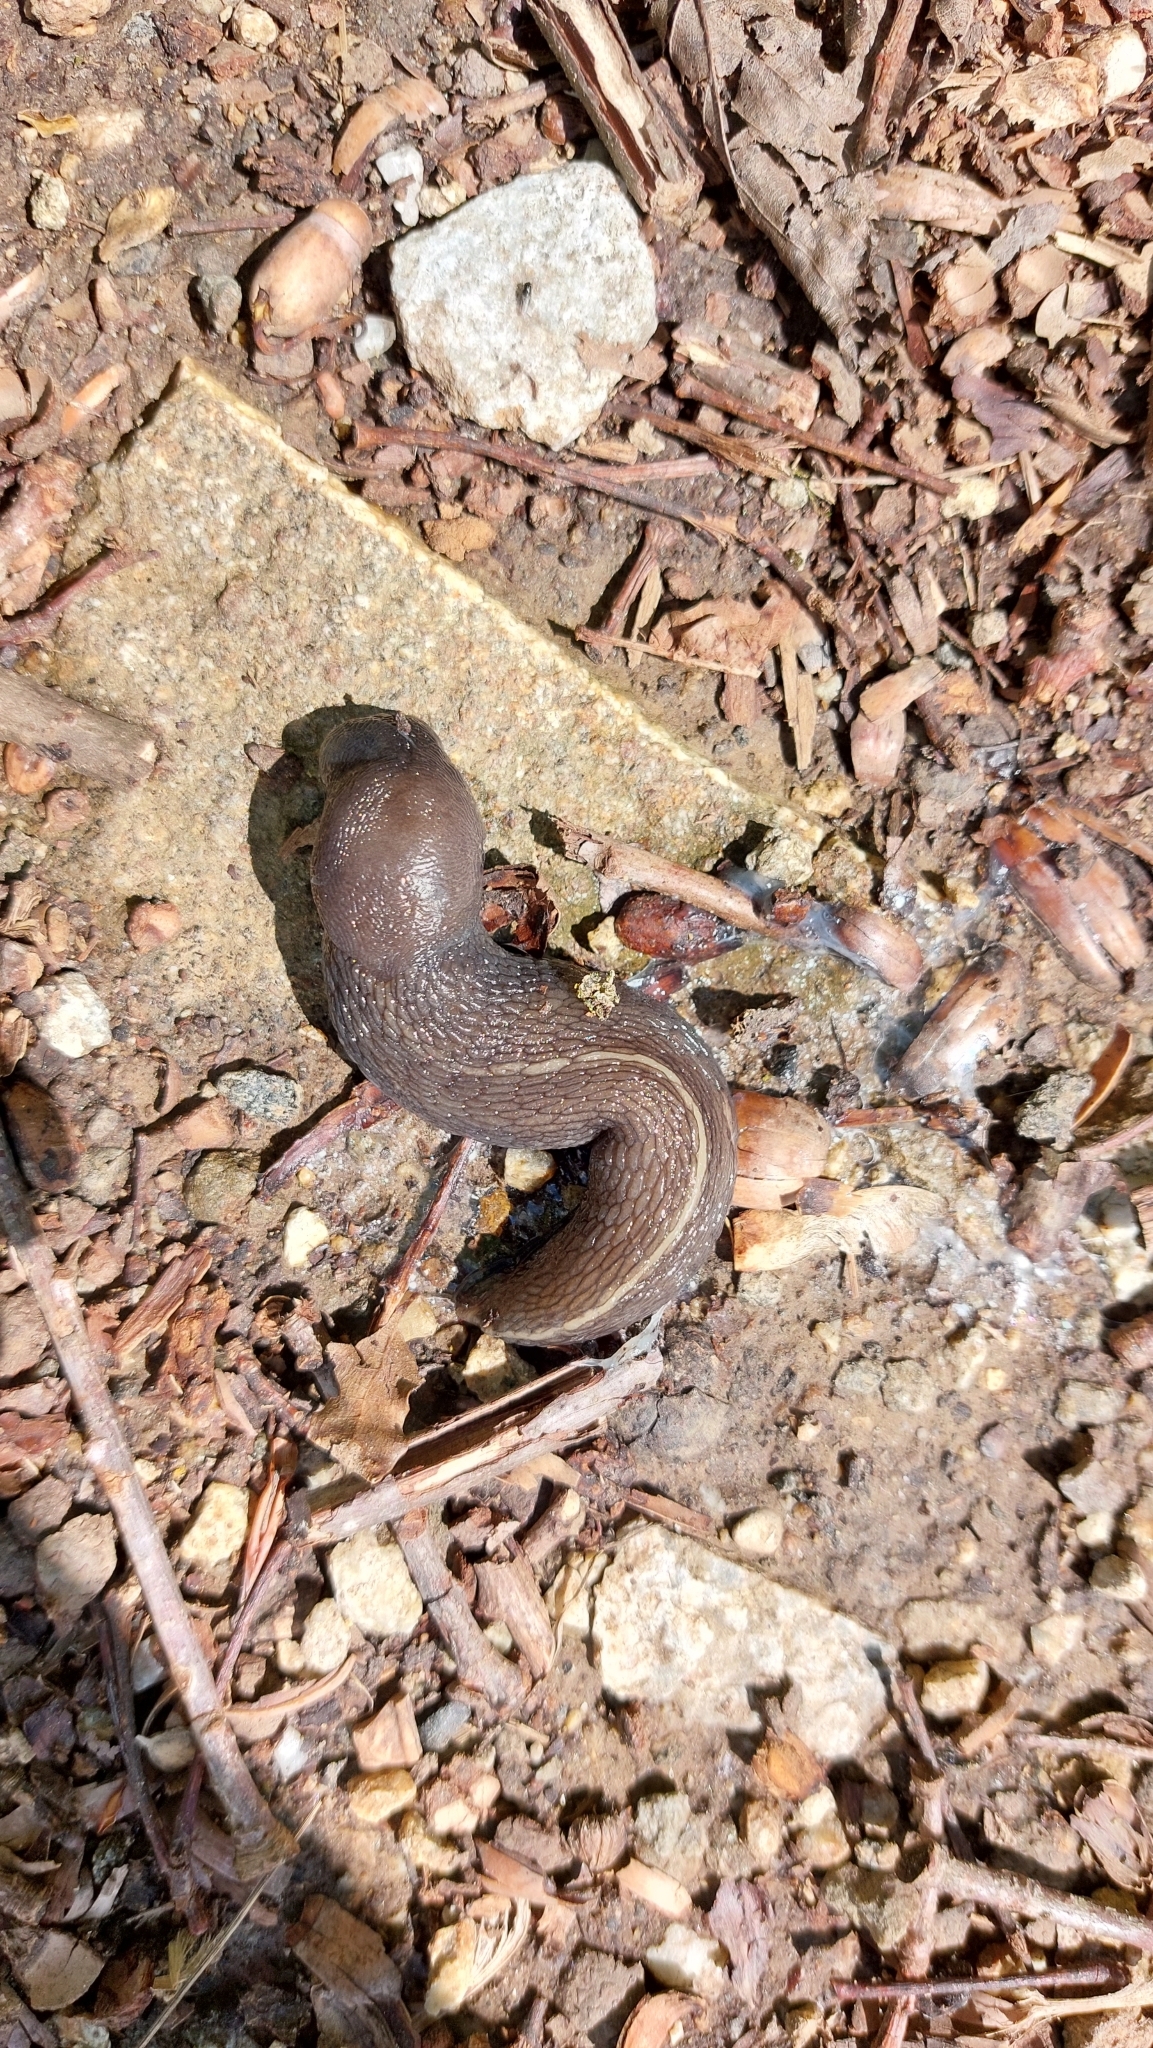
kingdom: Animalia
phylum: Mollusca
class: Gastropoda
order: Stylommatophora
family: Limacidae
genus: Limax
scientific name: Limax cinereoniger
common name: Ash-black slug
